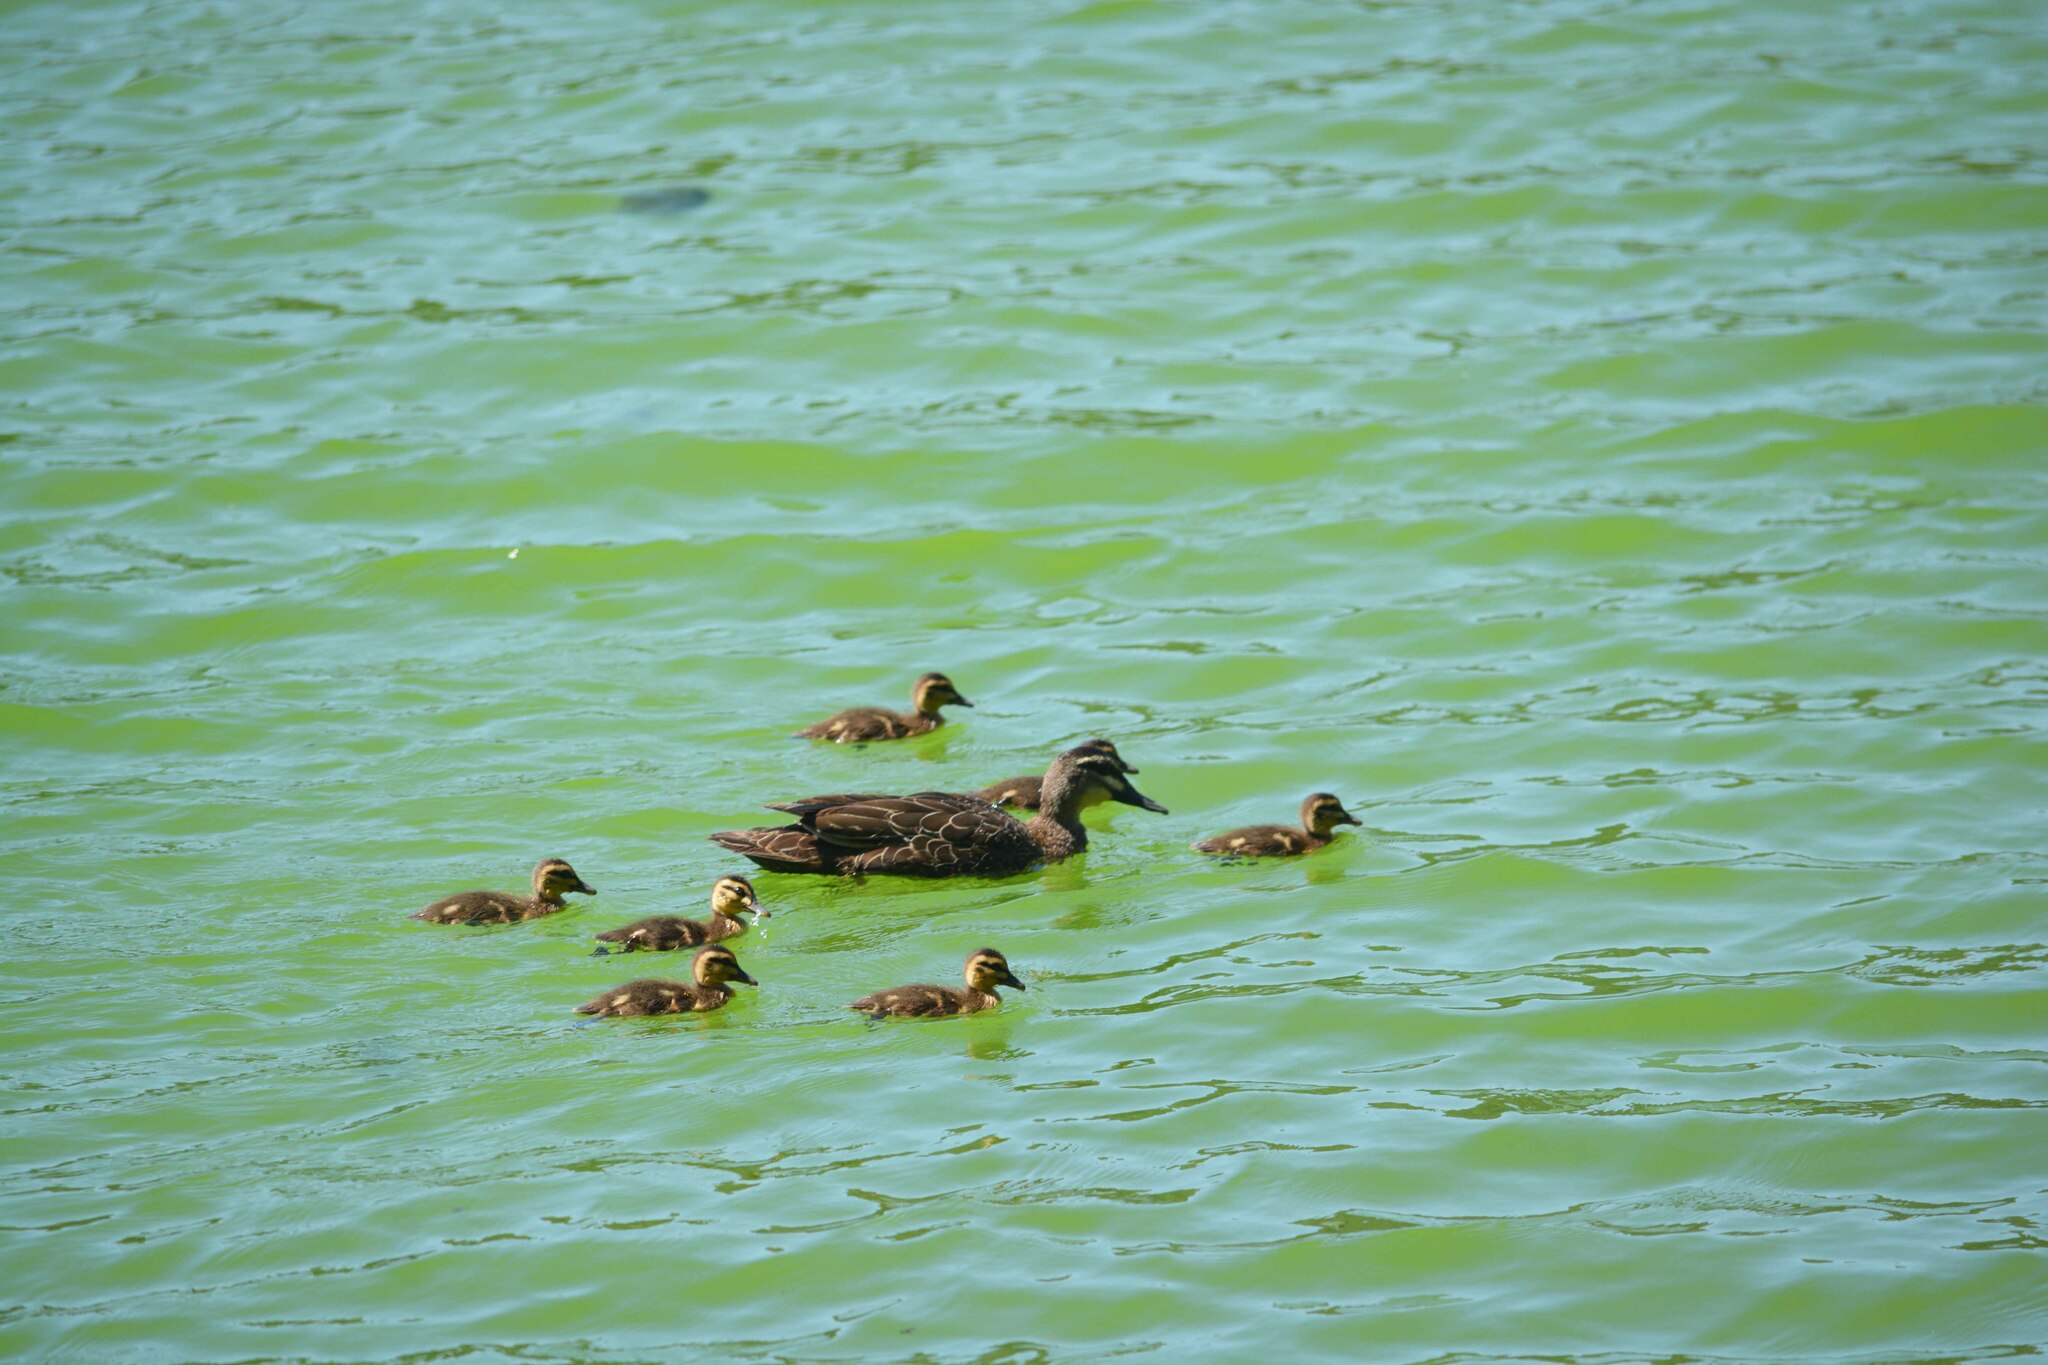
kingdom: Animalia
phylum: Chordata
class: Aves
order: Anseriformes
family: Anatidae
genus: Anas
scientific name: Anas superciliosa
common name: Pacific black duck
